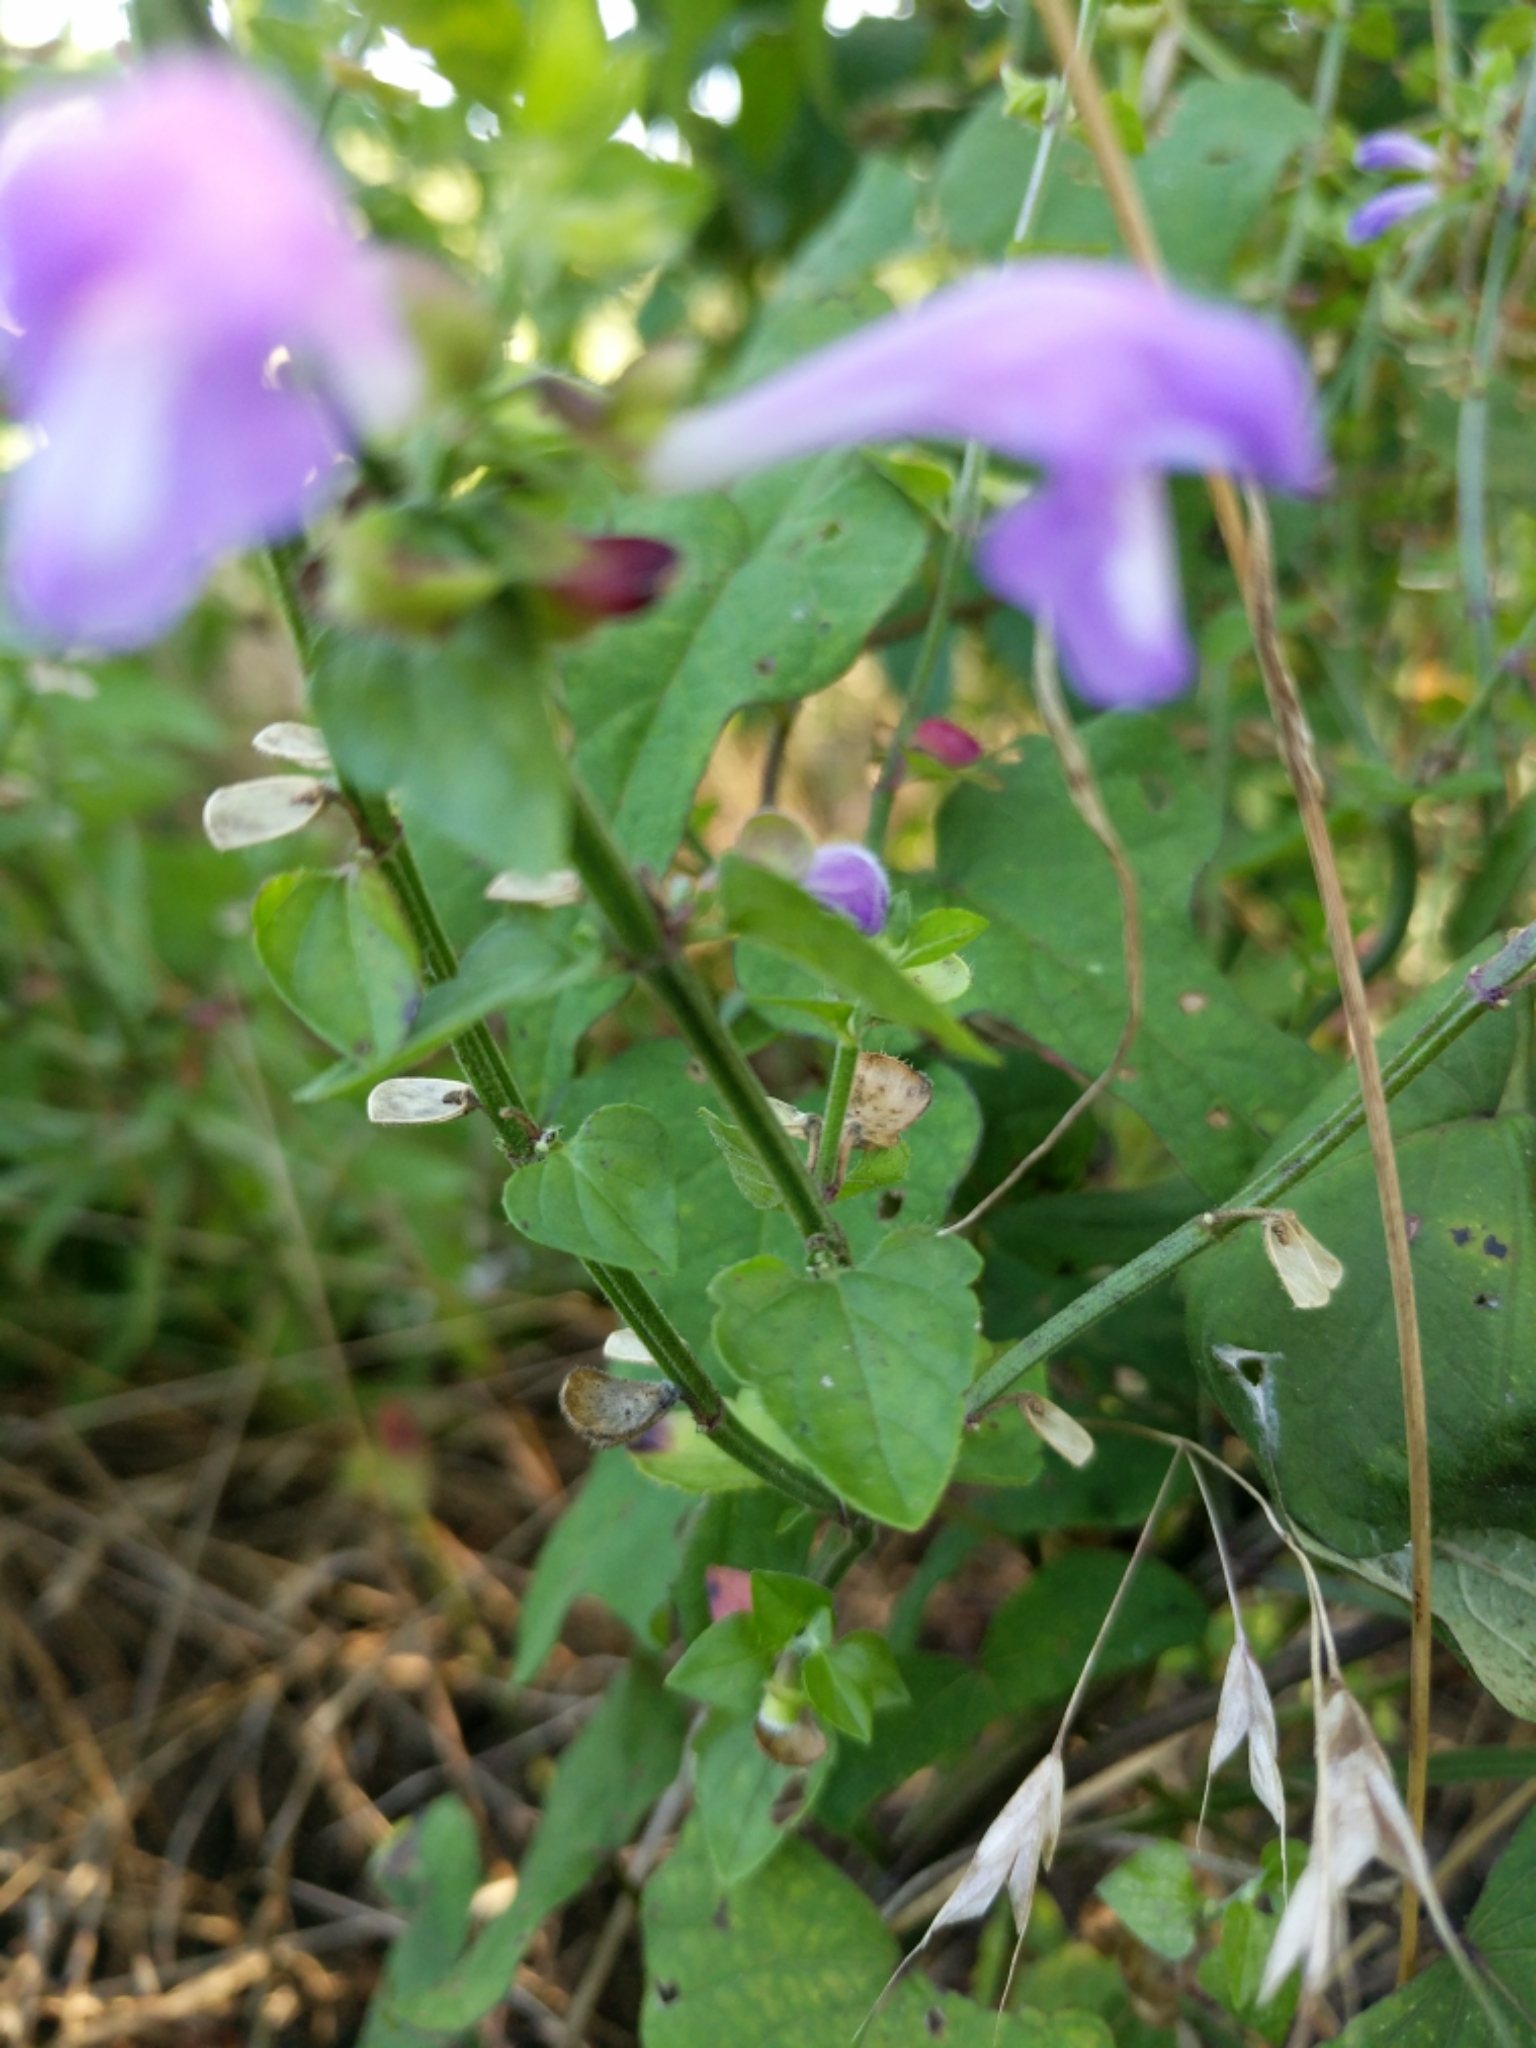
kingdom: Plantae
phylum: Tracheophyta
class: Magnoliopsida
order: Lamiales
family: Lamiaceae
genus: Scutellaria
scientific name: Scutellaria cardiophylla
